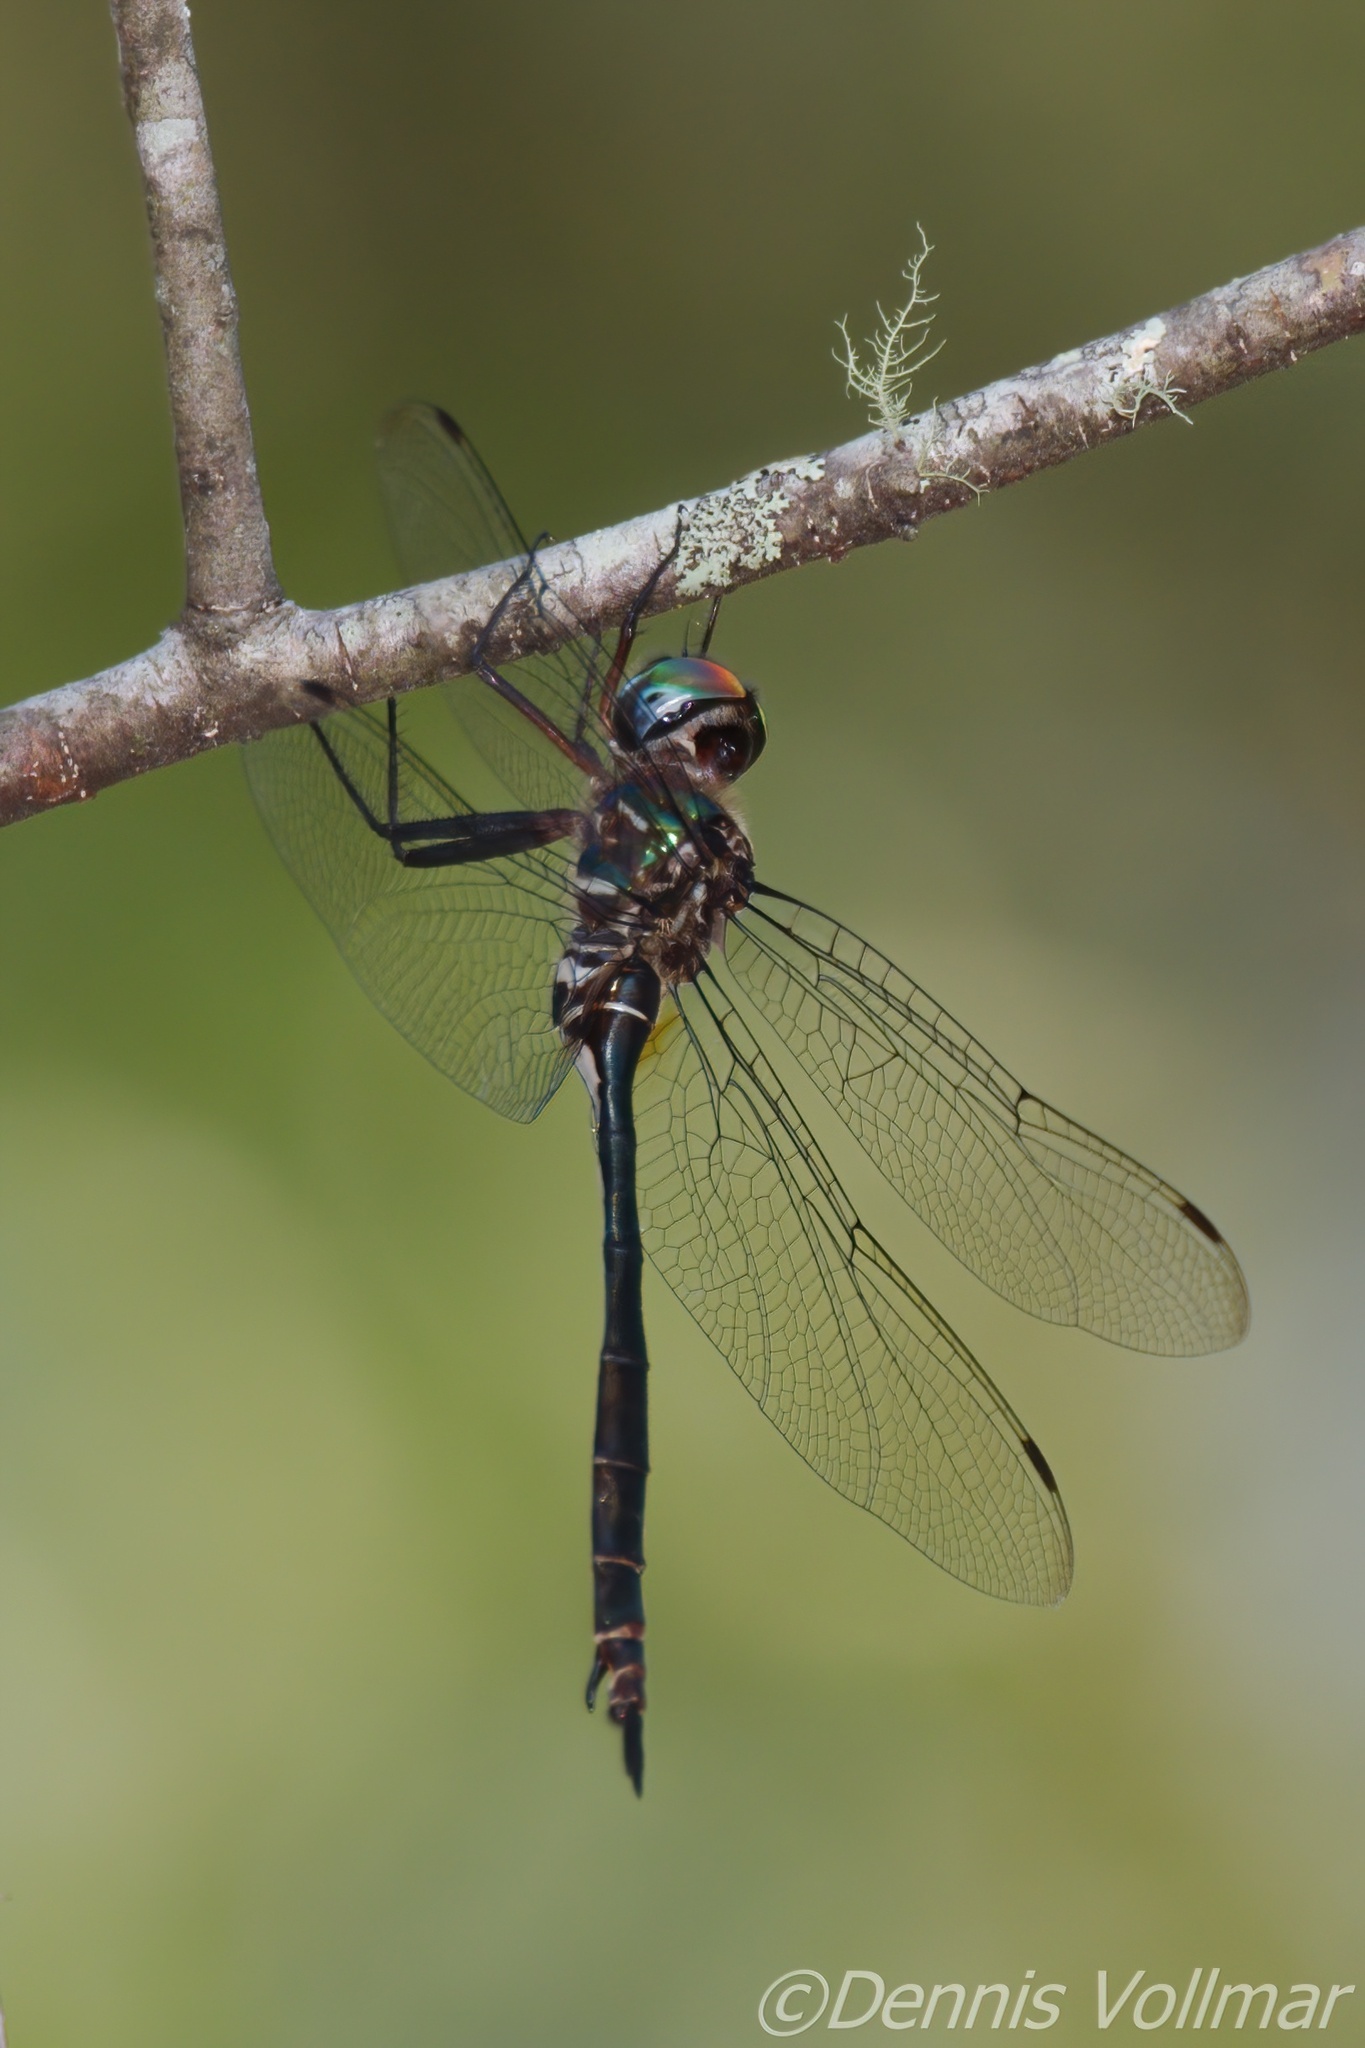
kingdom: Animalia
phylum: Arthropoda
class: Insecta
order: Odonata
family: Corduliidae
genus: Somatochlora
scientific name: Somatochlora filosa
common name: Fine-lined emerald
